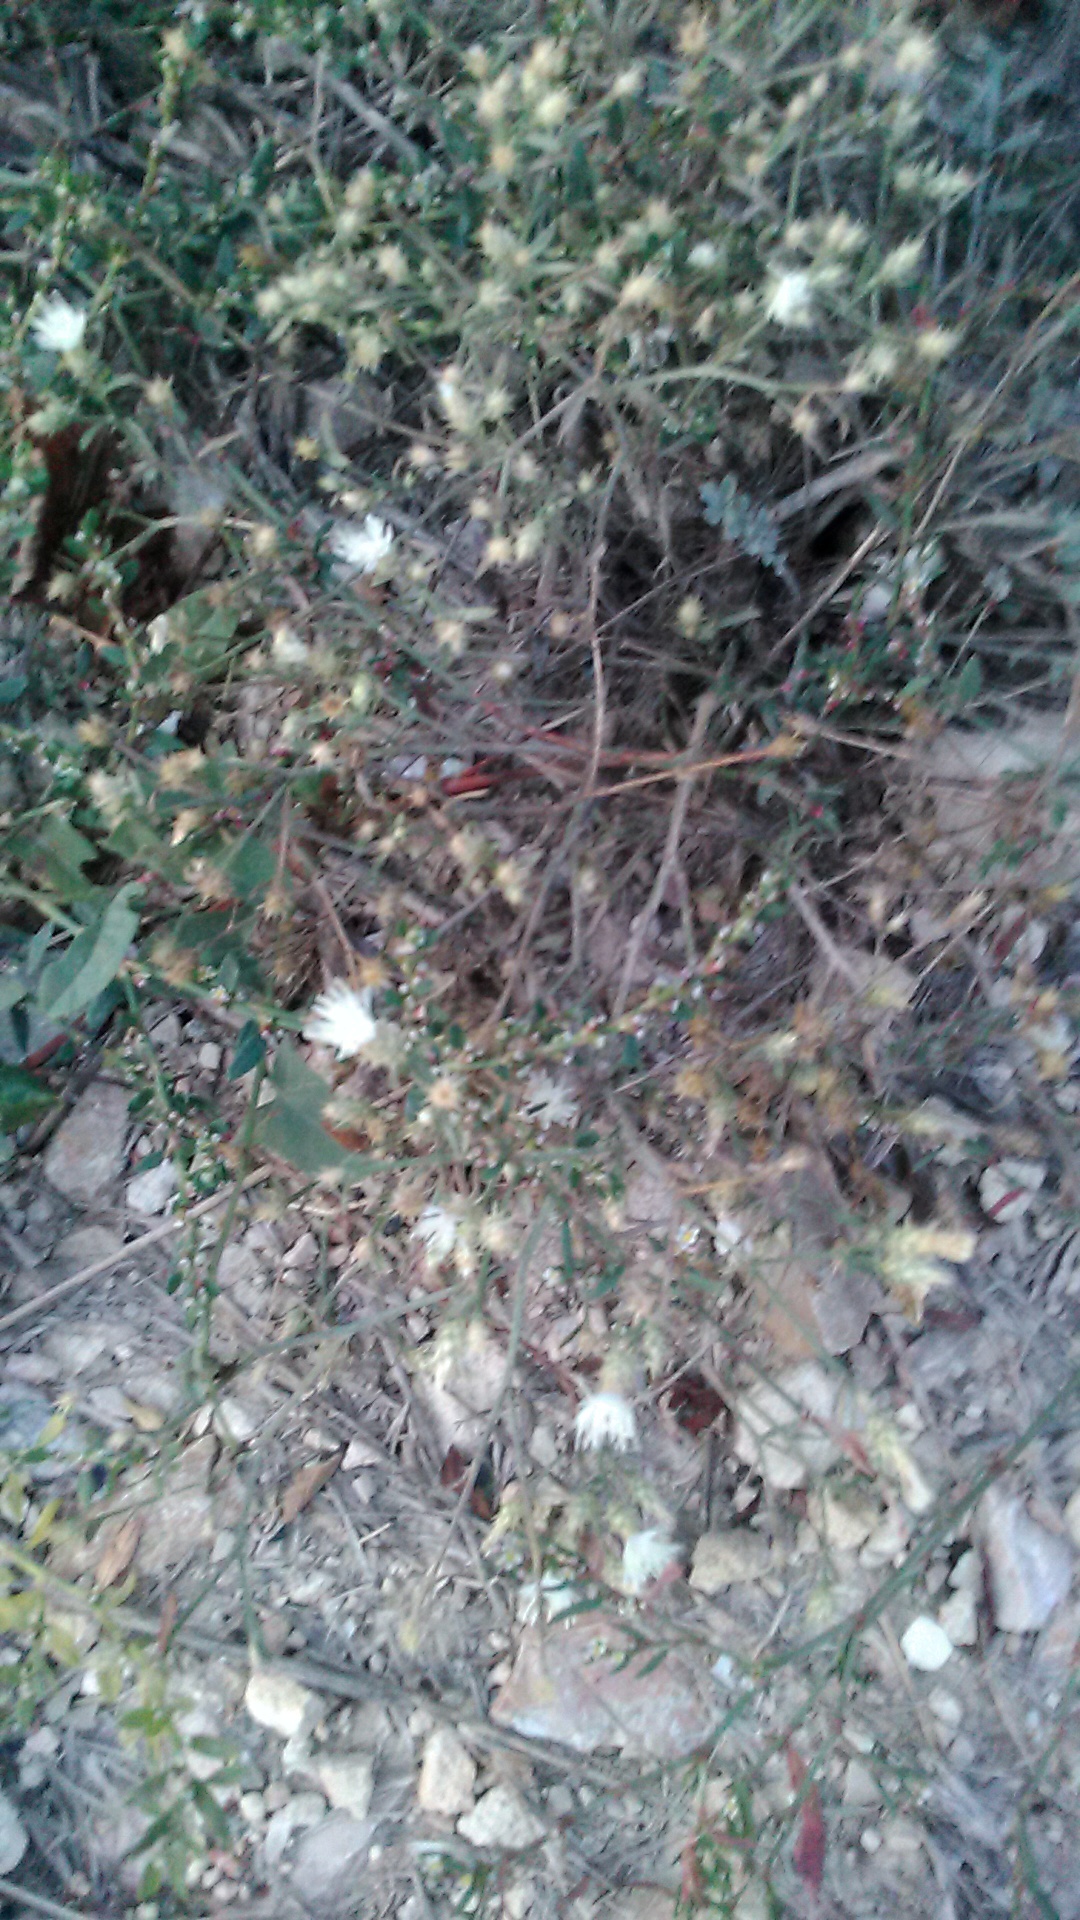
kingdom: Plantae
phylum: Tracheophyta
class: Magnoliopsida
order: Asterales
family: Asteraceae
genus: Centaurea
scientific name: Centaurea diffusa
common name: Diffuse knapweed
